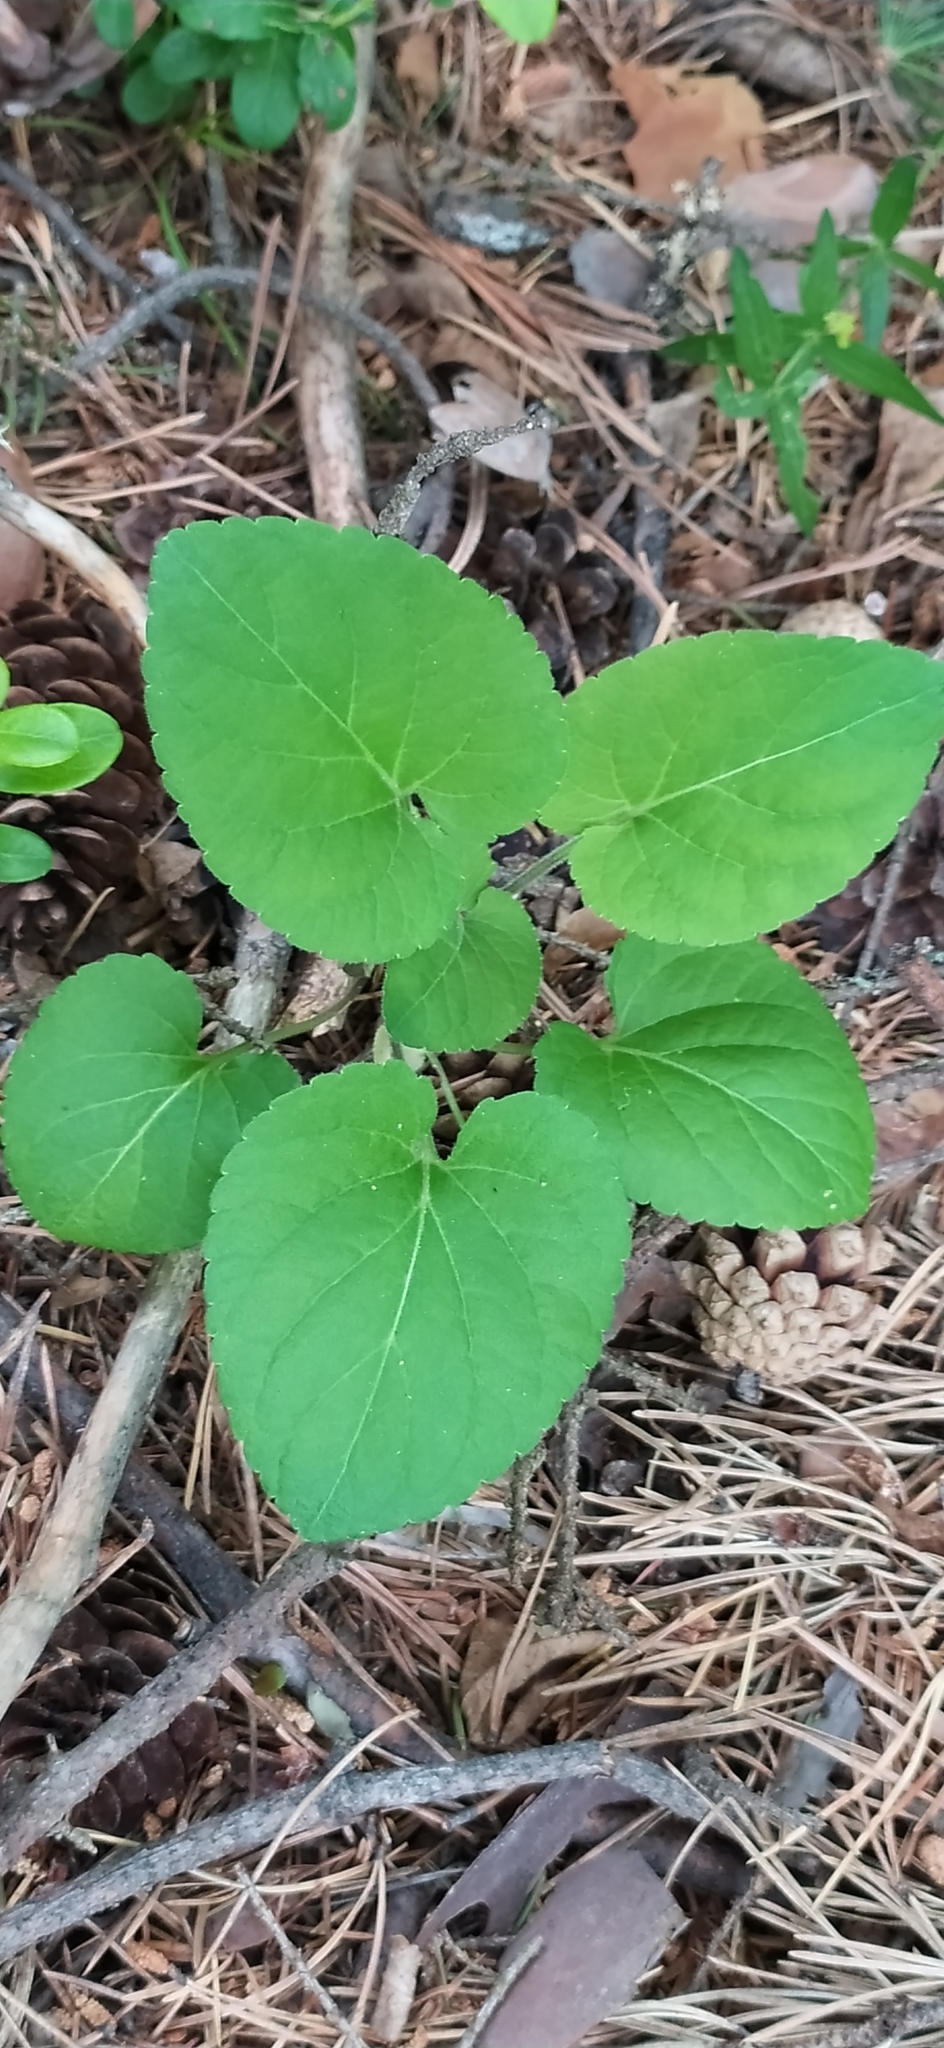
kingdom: Plantae
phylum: Tracheophyta
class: Magnoliopsida
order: Malpighiales
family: Violaceae
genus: Viola
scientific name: Viola collina
